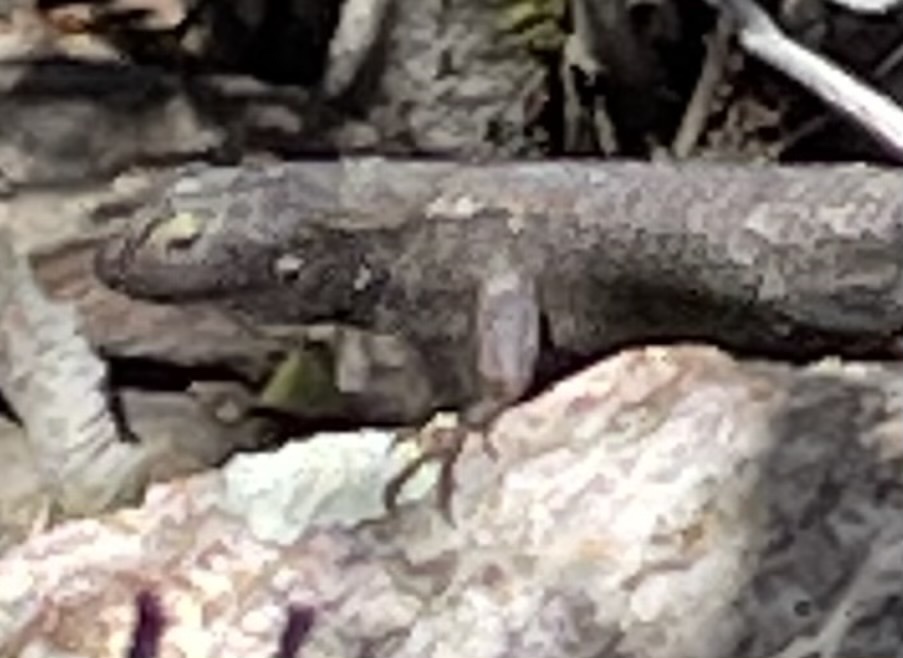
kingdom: Animalia
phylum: Chordata
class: Squamata
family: Phrynosomatidae
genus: Sceloporus
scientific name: Sceloporus occidentalis
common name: Western fence lizard
